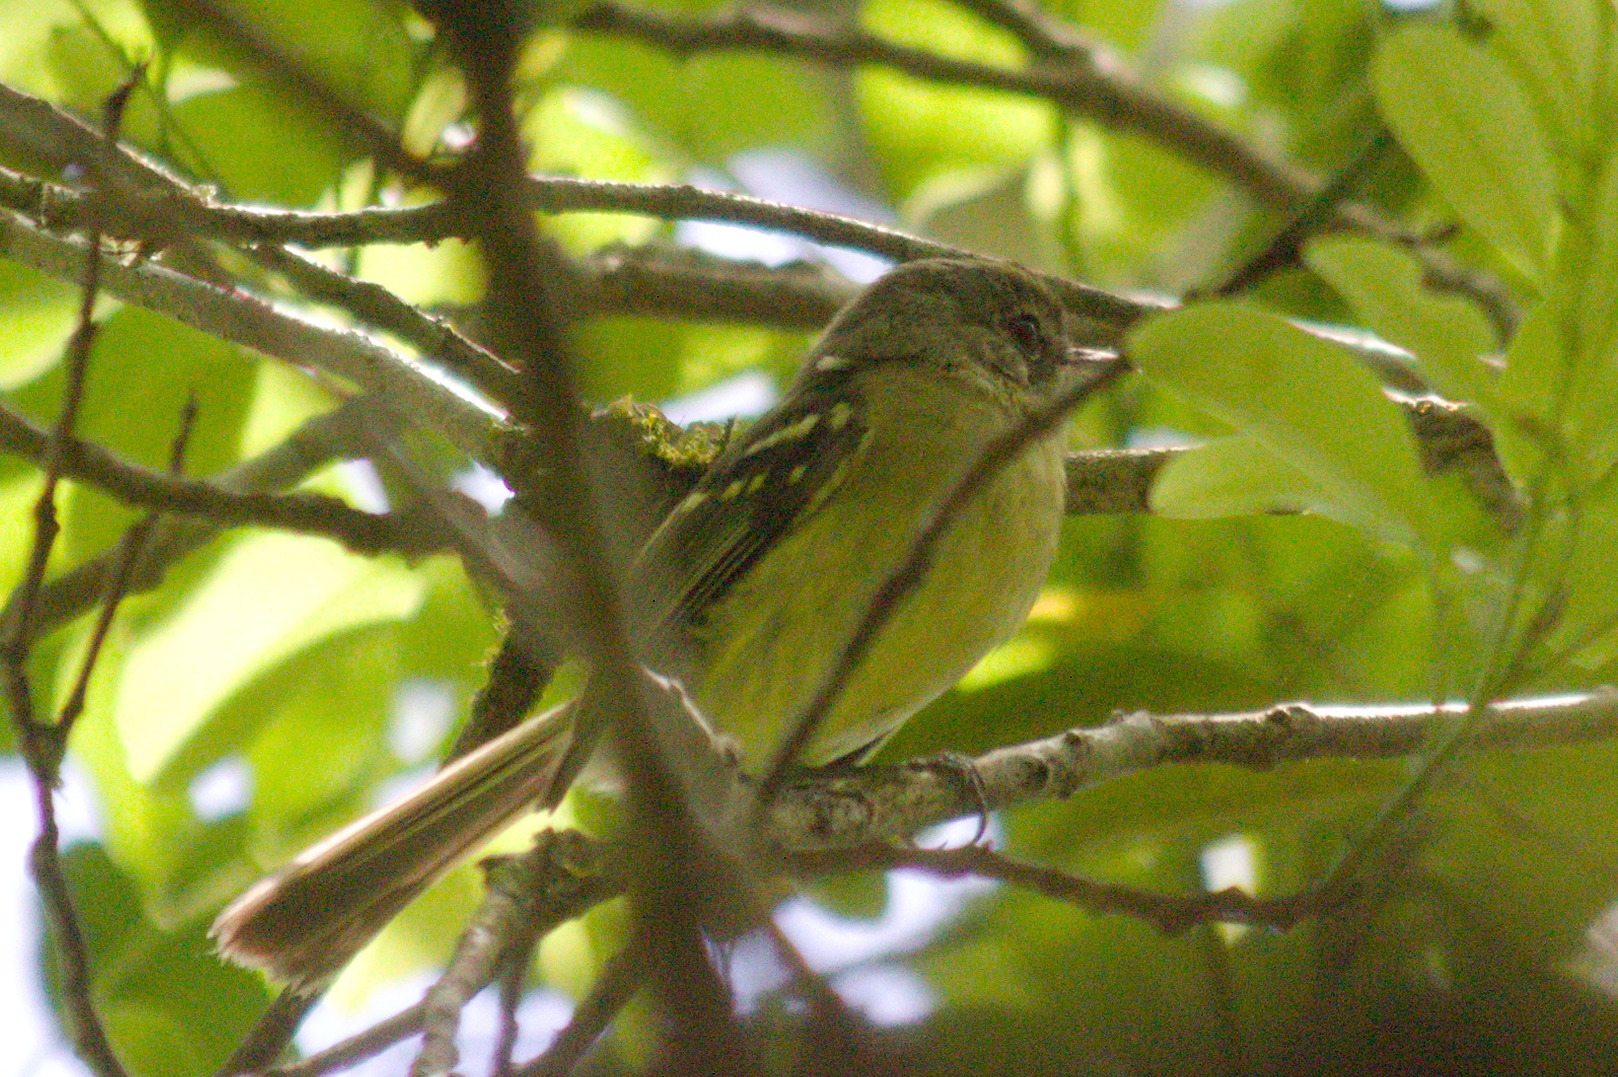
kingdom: Animalia
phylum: Chordata
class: Aves
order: Passeriformes
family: Tyrannidae
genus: Phylloscartes
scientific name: Phylloscartes ventralis
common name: Mottle-cheeked tyrannulet
